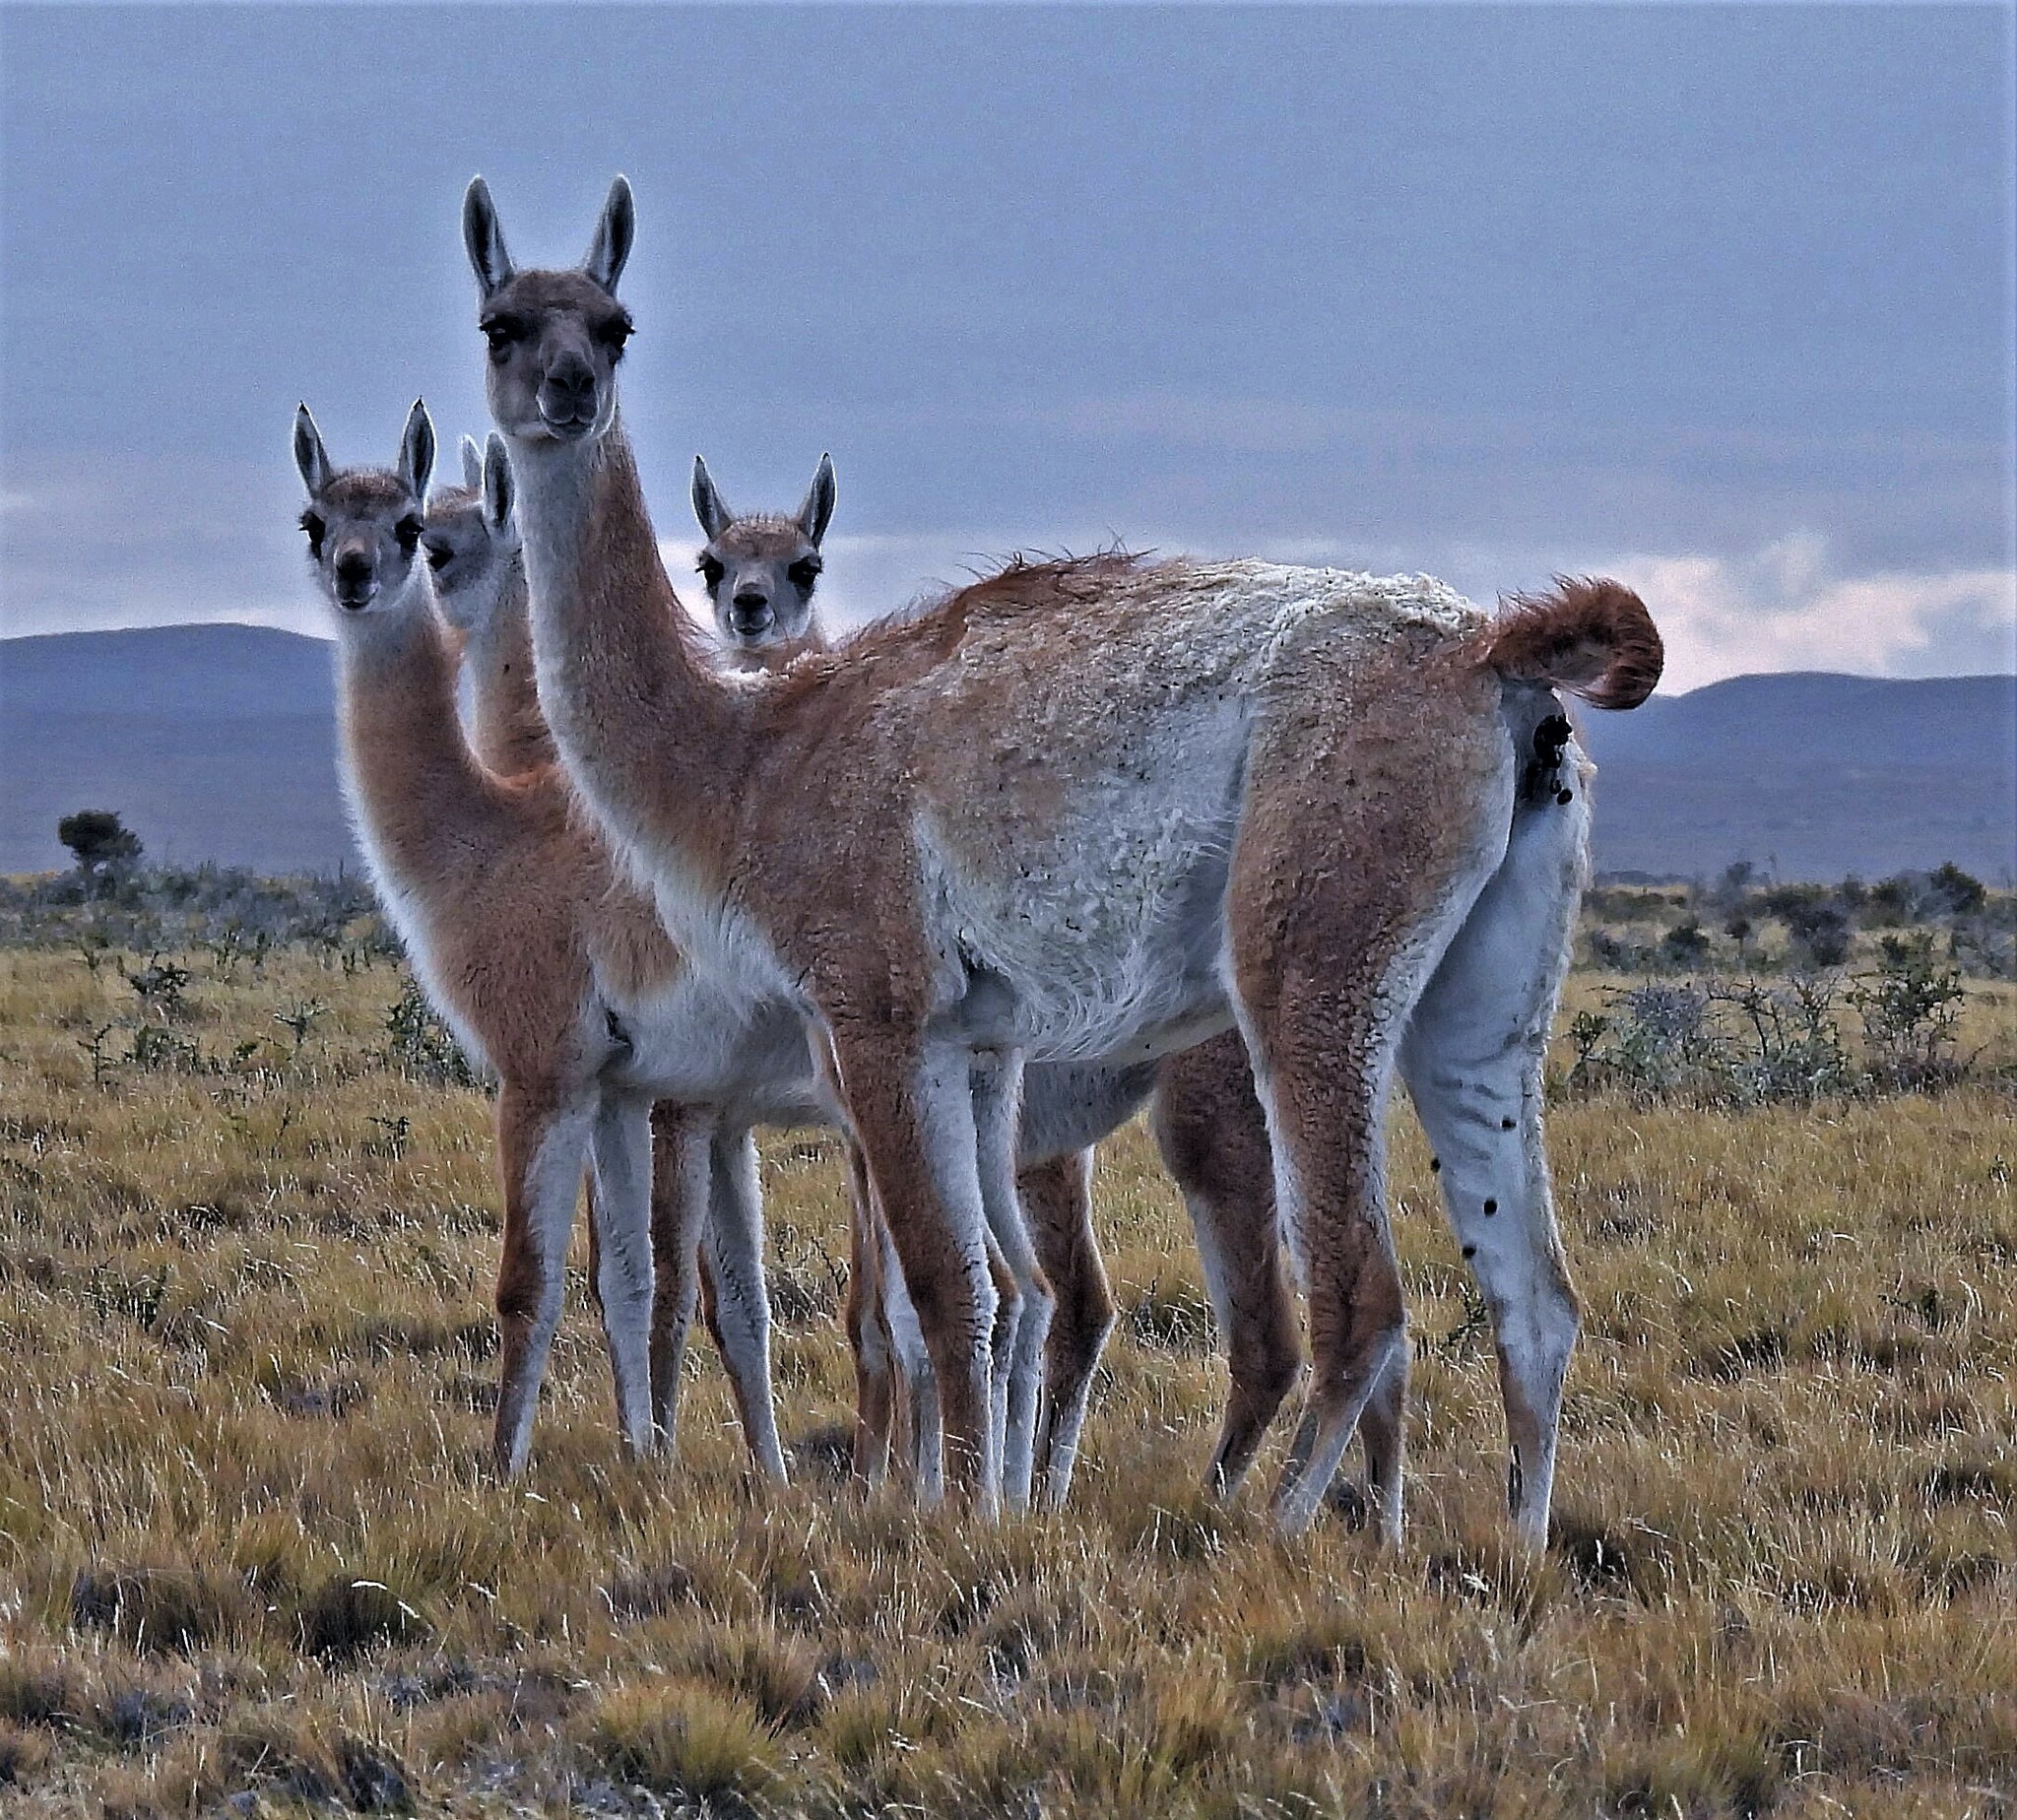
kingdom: Animalia
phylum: Chordata
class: Mammalia
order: Artiodactyla
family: Camelidae
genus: Lama
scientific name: Lama glama
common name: Llama
